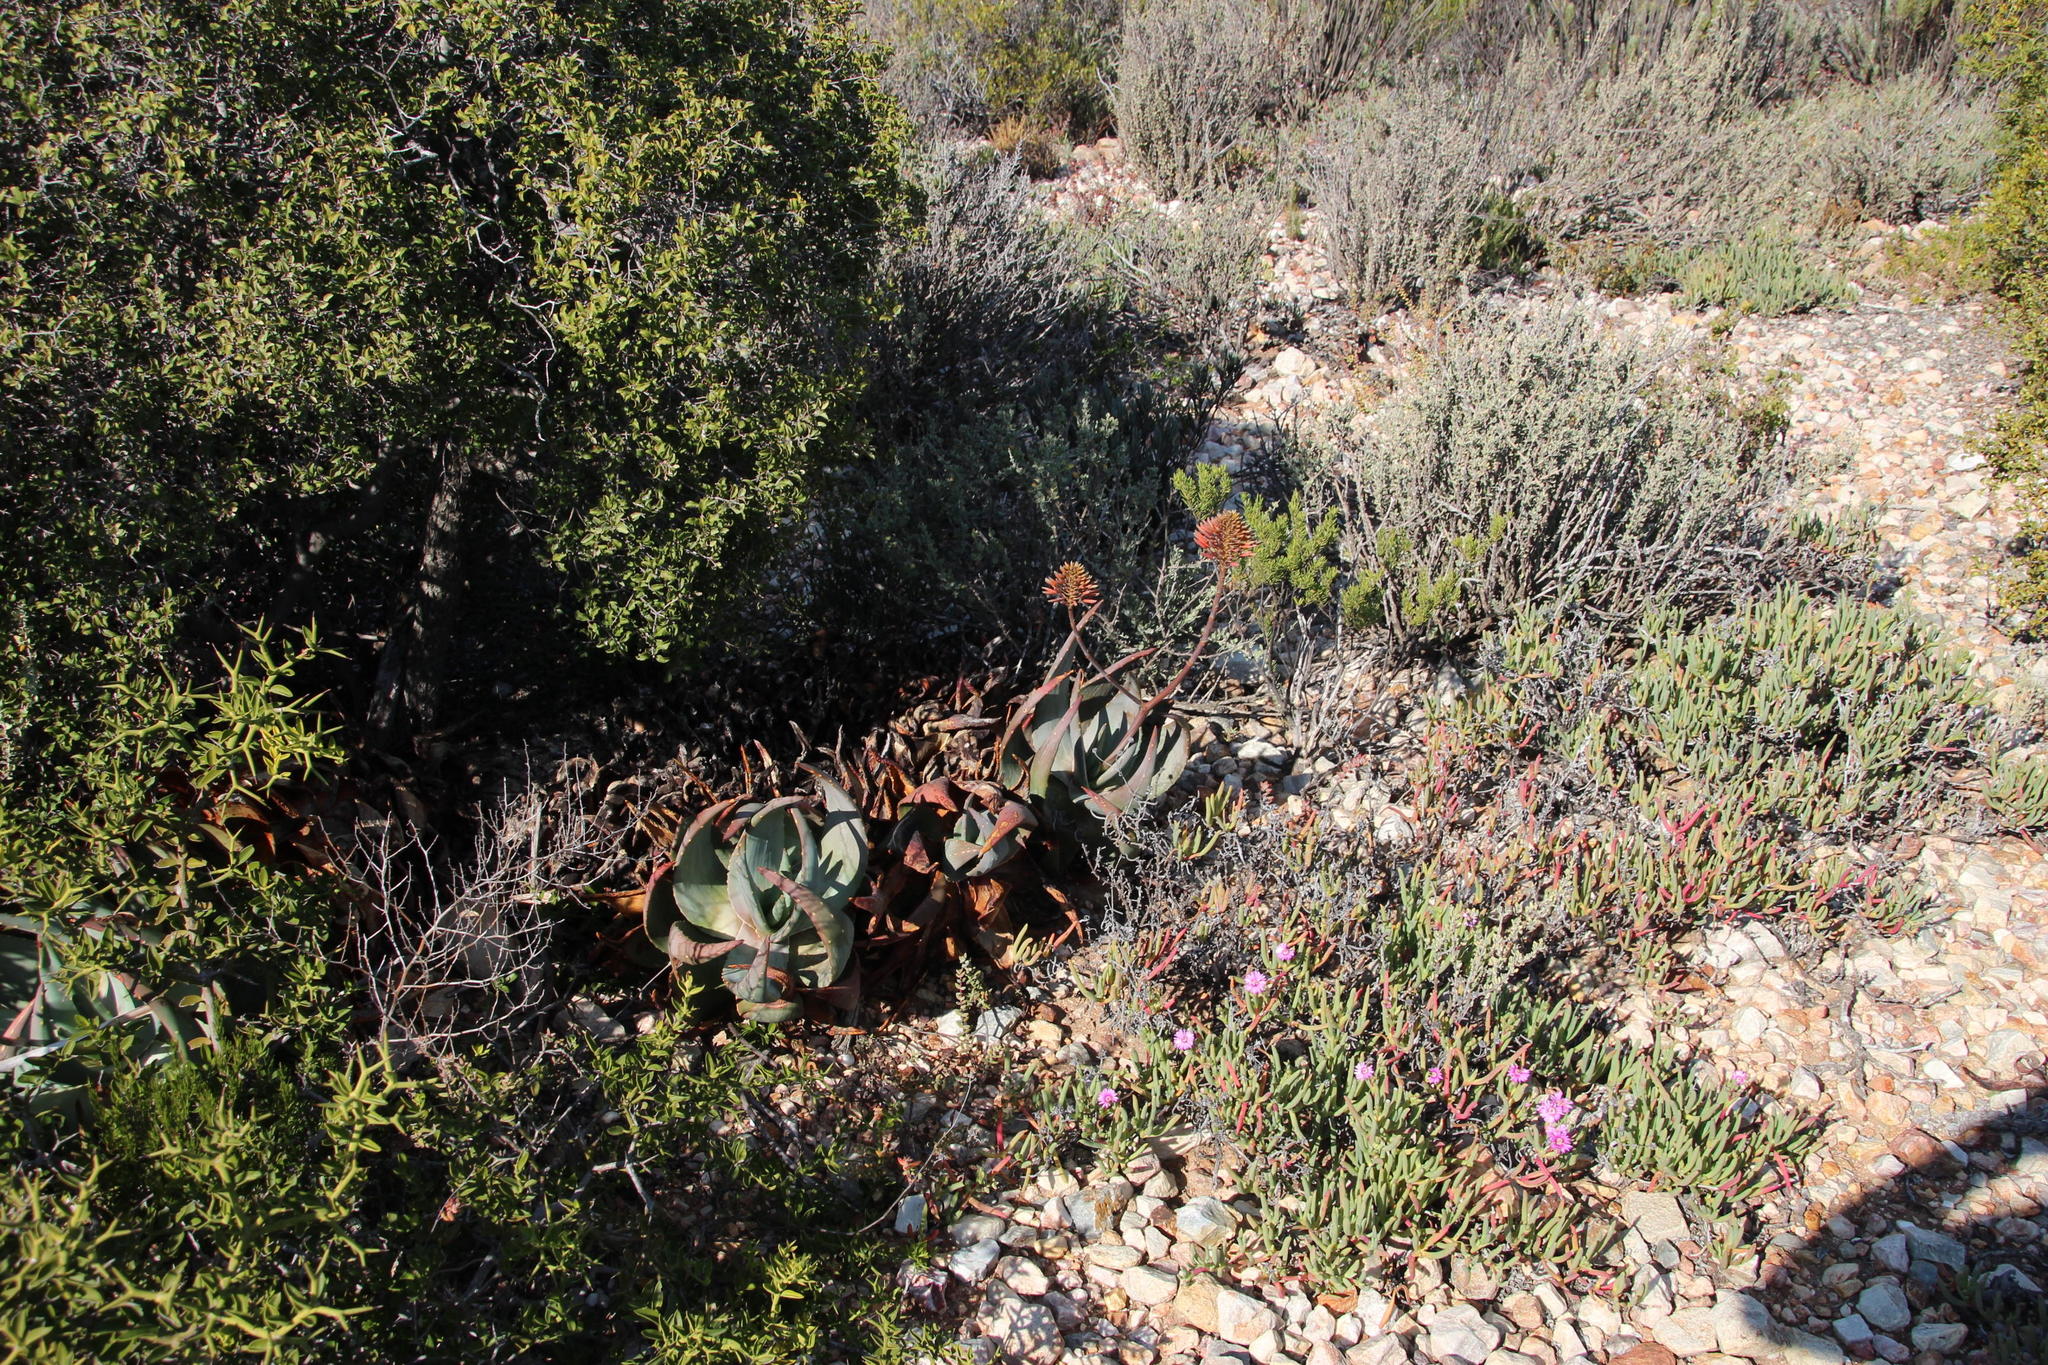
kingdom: Plantae
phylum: Tracheophyta
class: Liliopsida
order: Asparagales
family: Asphodelaceae
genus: Aloe
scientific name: Aloe comptonii
